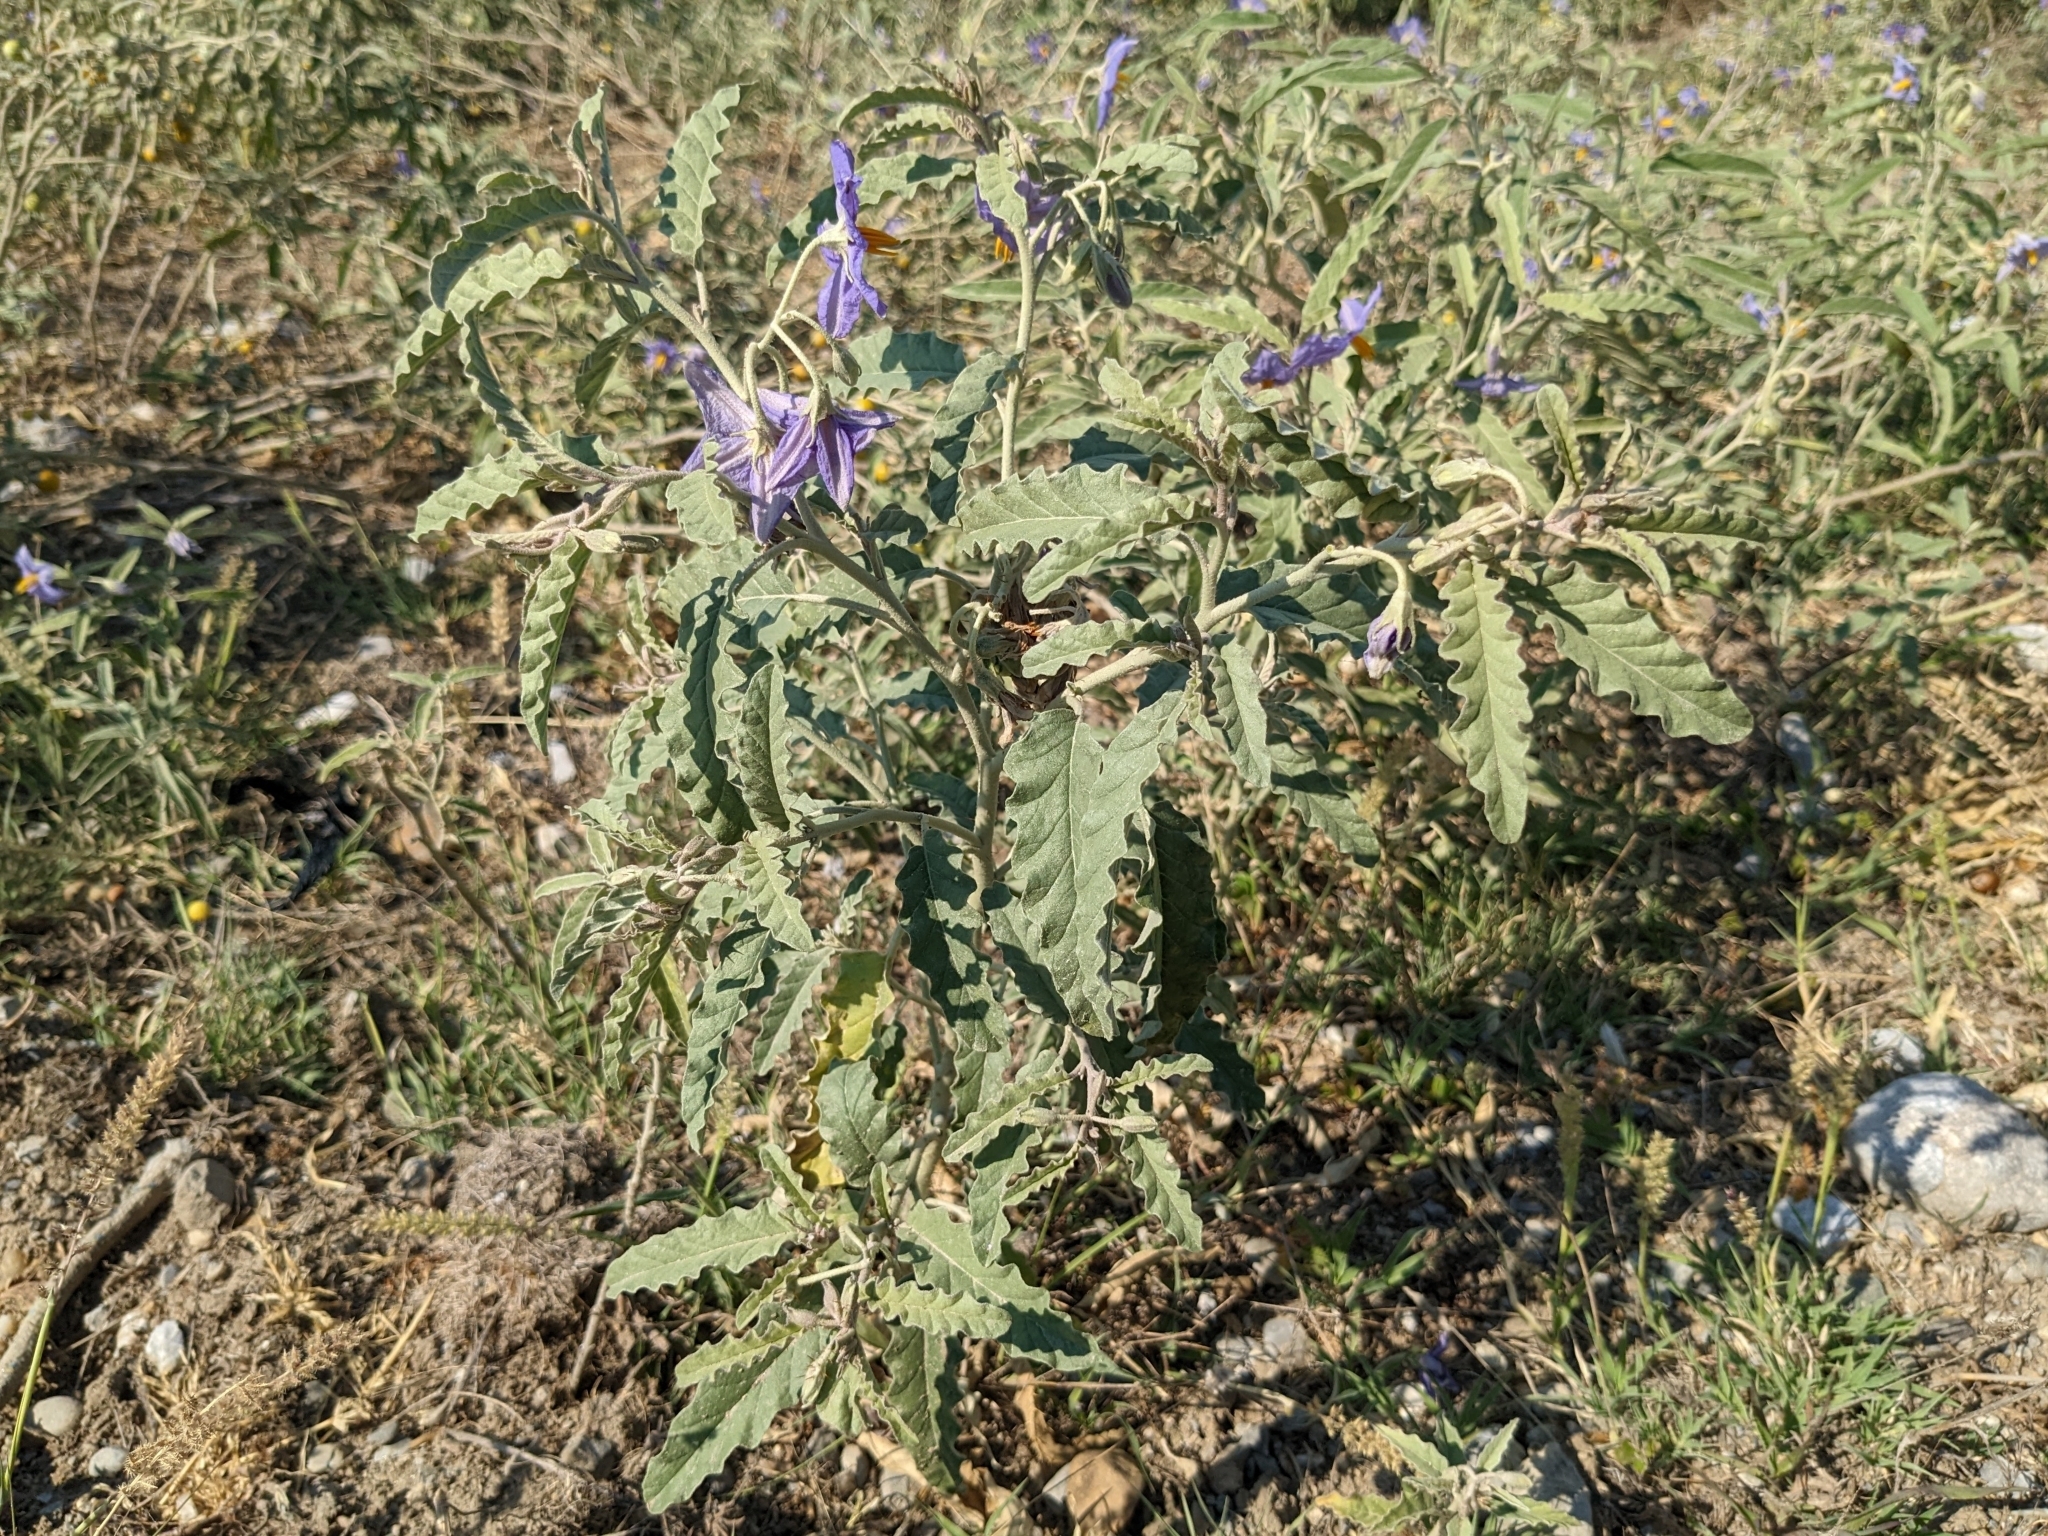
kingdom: Plantae
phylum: Tracheophyta
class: Magnoliopsida
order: Solanales
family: Solanaceae
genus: Solanum
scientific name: Solanum elaeagnifolium
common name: Silverleaf nightshade
